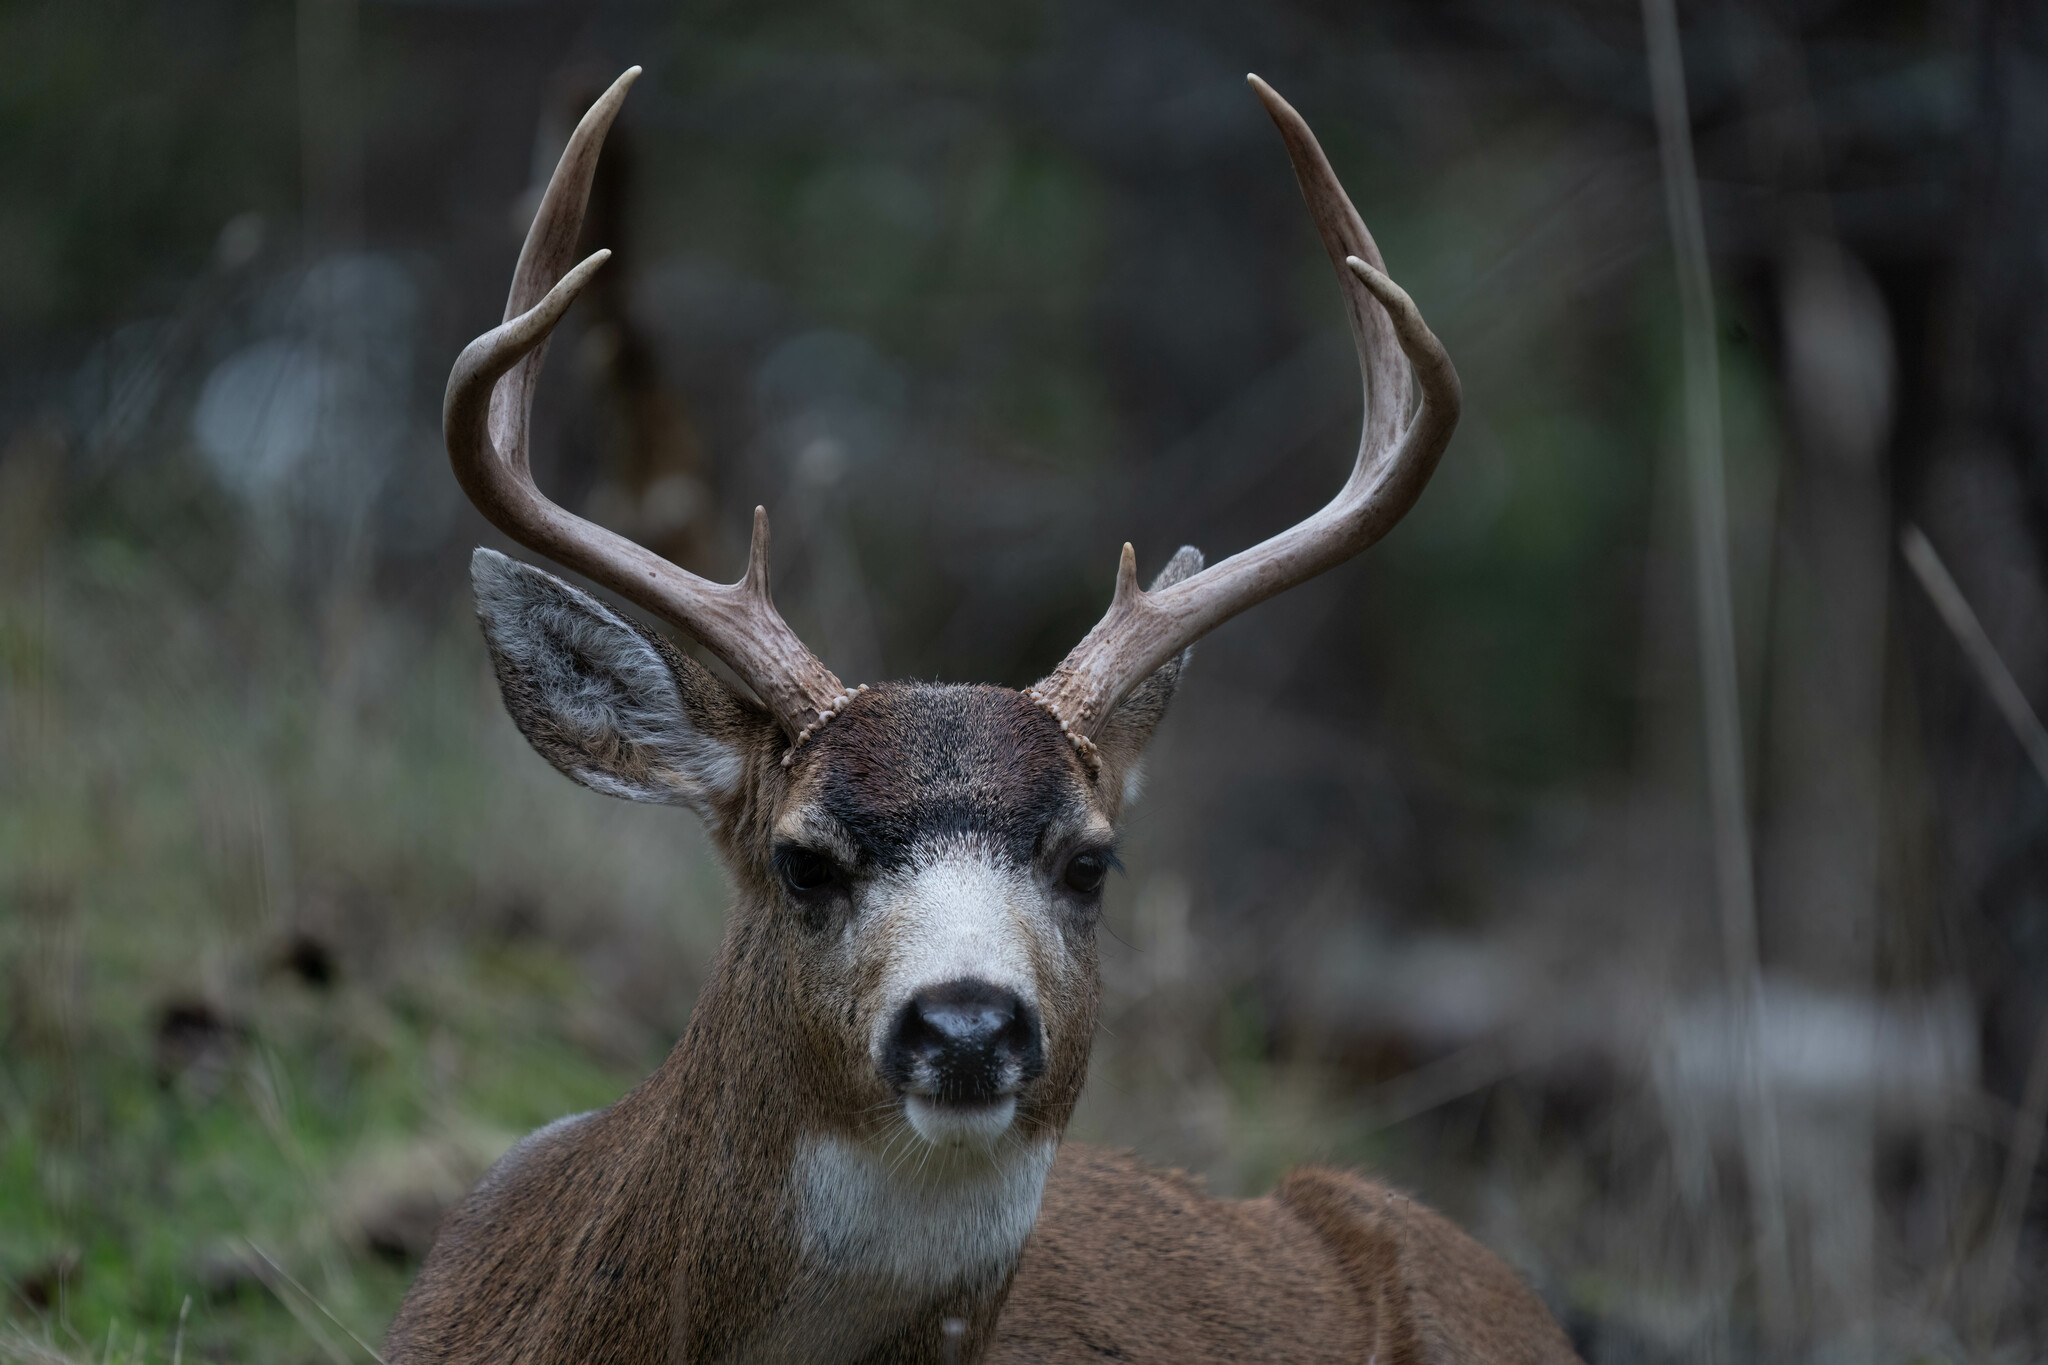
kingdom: Animalia
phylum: Chordata
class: Mammalia
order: Artiodactyla
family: Cervidae
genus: Odocoileus
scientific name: Odocoileus hemionus
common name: Mule deer
